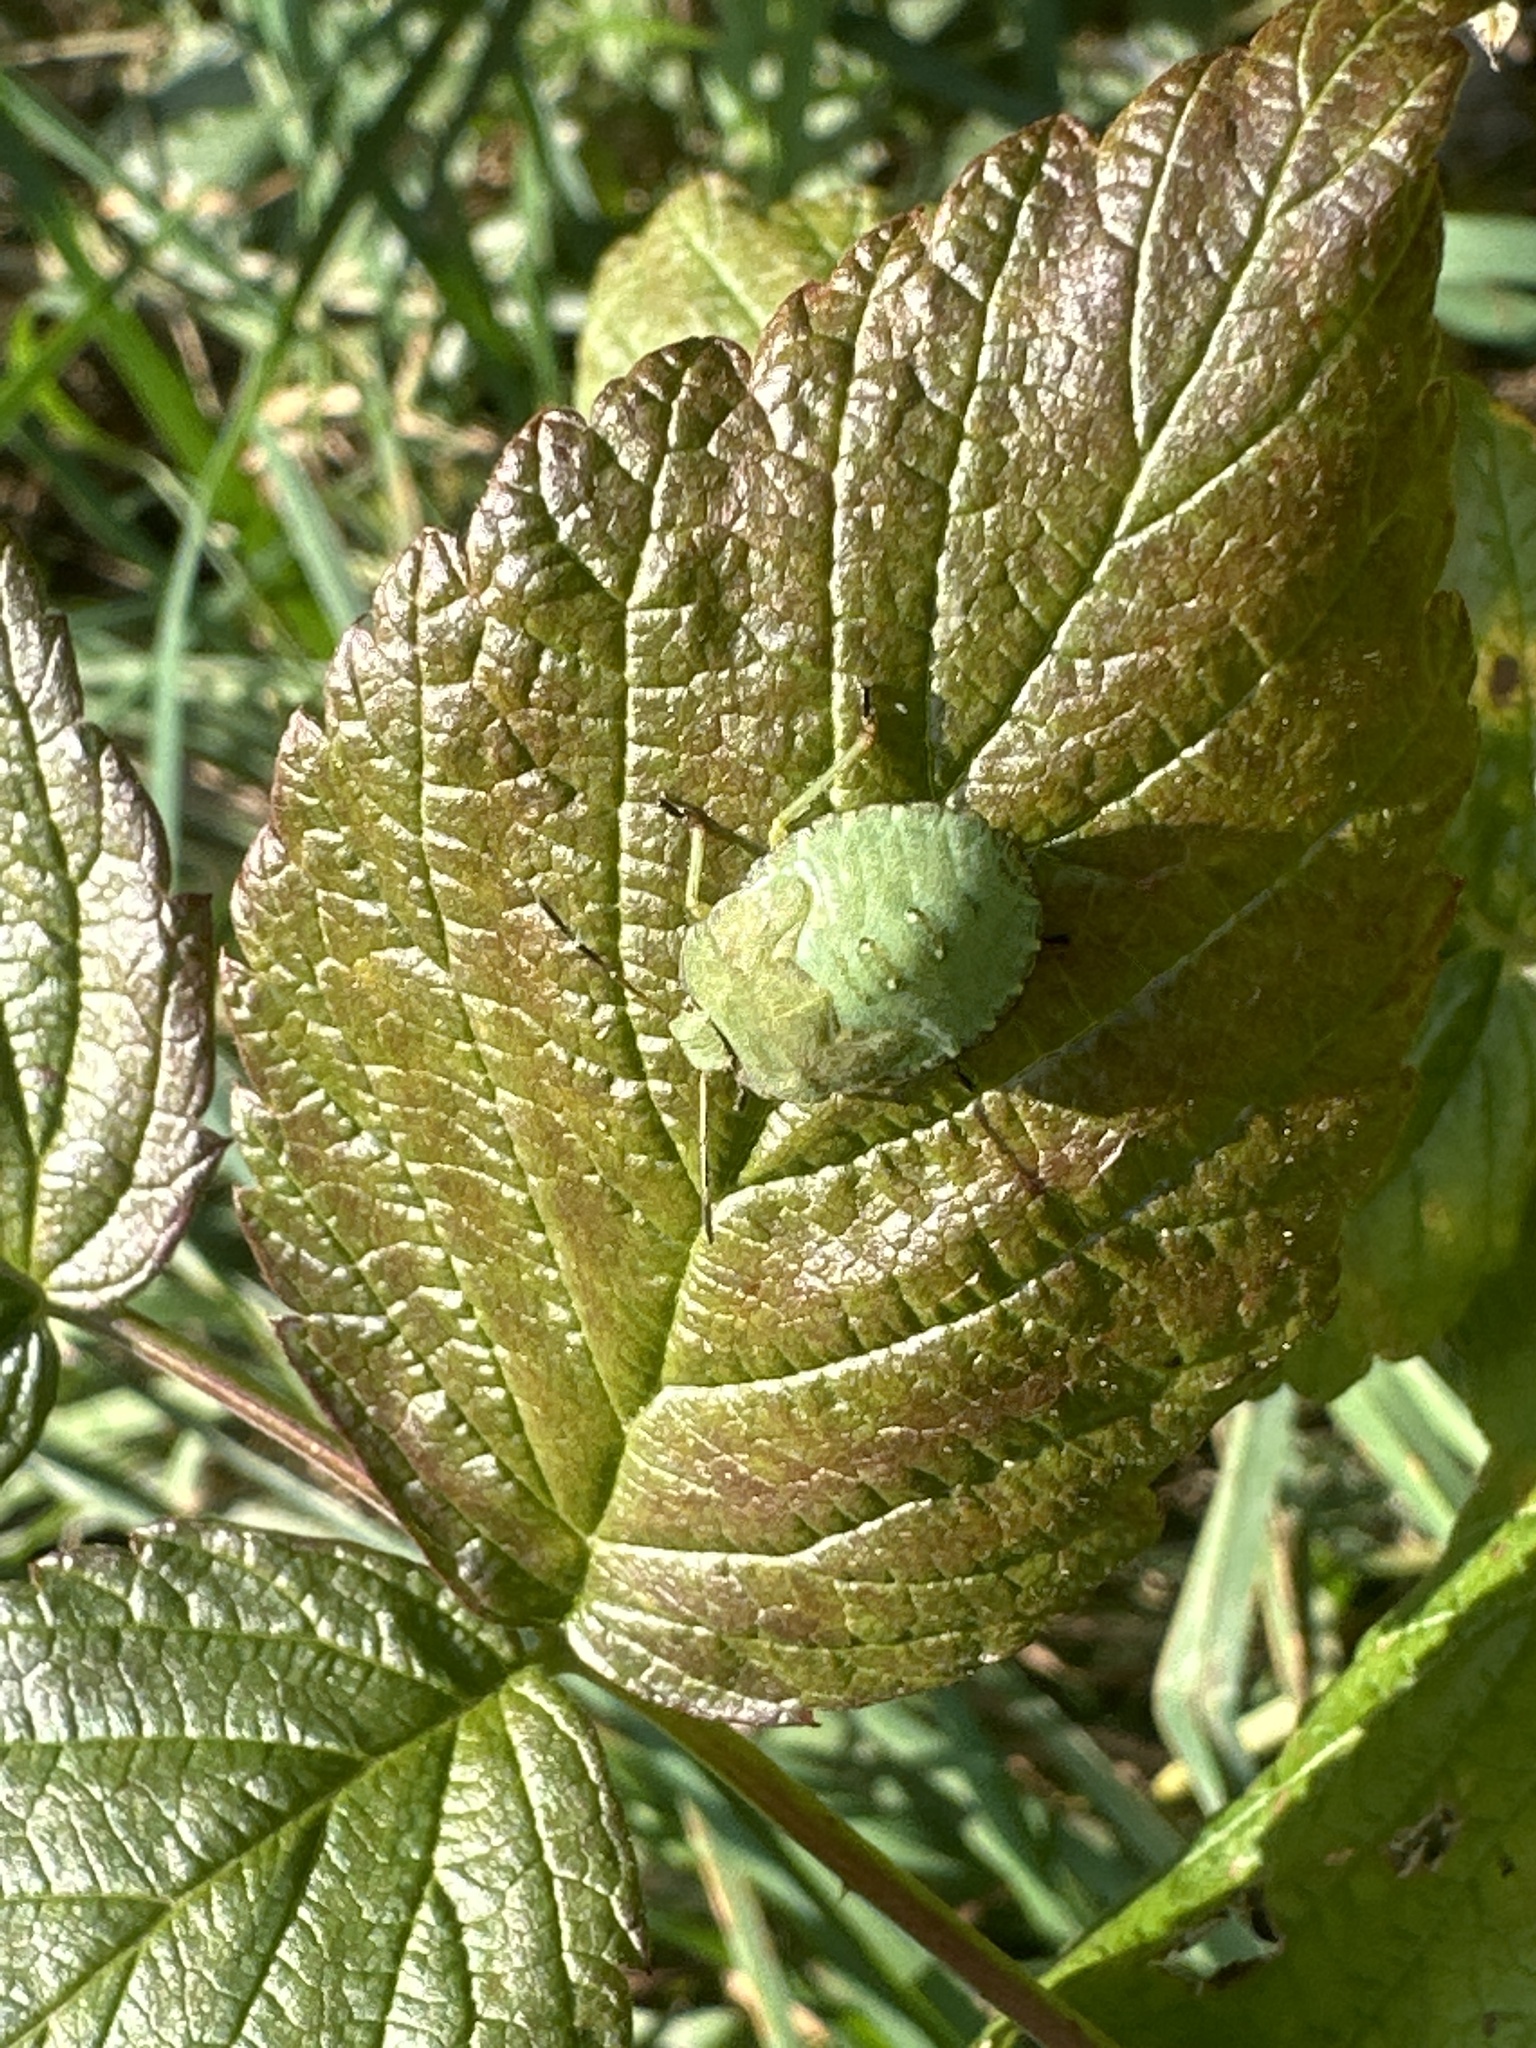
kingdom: Animalia
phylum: Arthropoda
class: Insecta
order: Hemiptera
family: Pentatomidae
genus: Palomena
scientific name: Palomena prasina
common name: Green shieldbug
